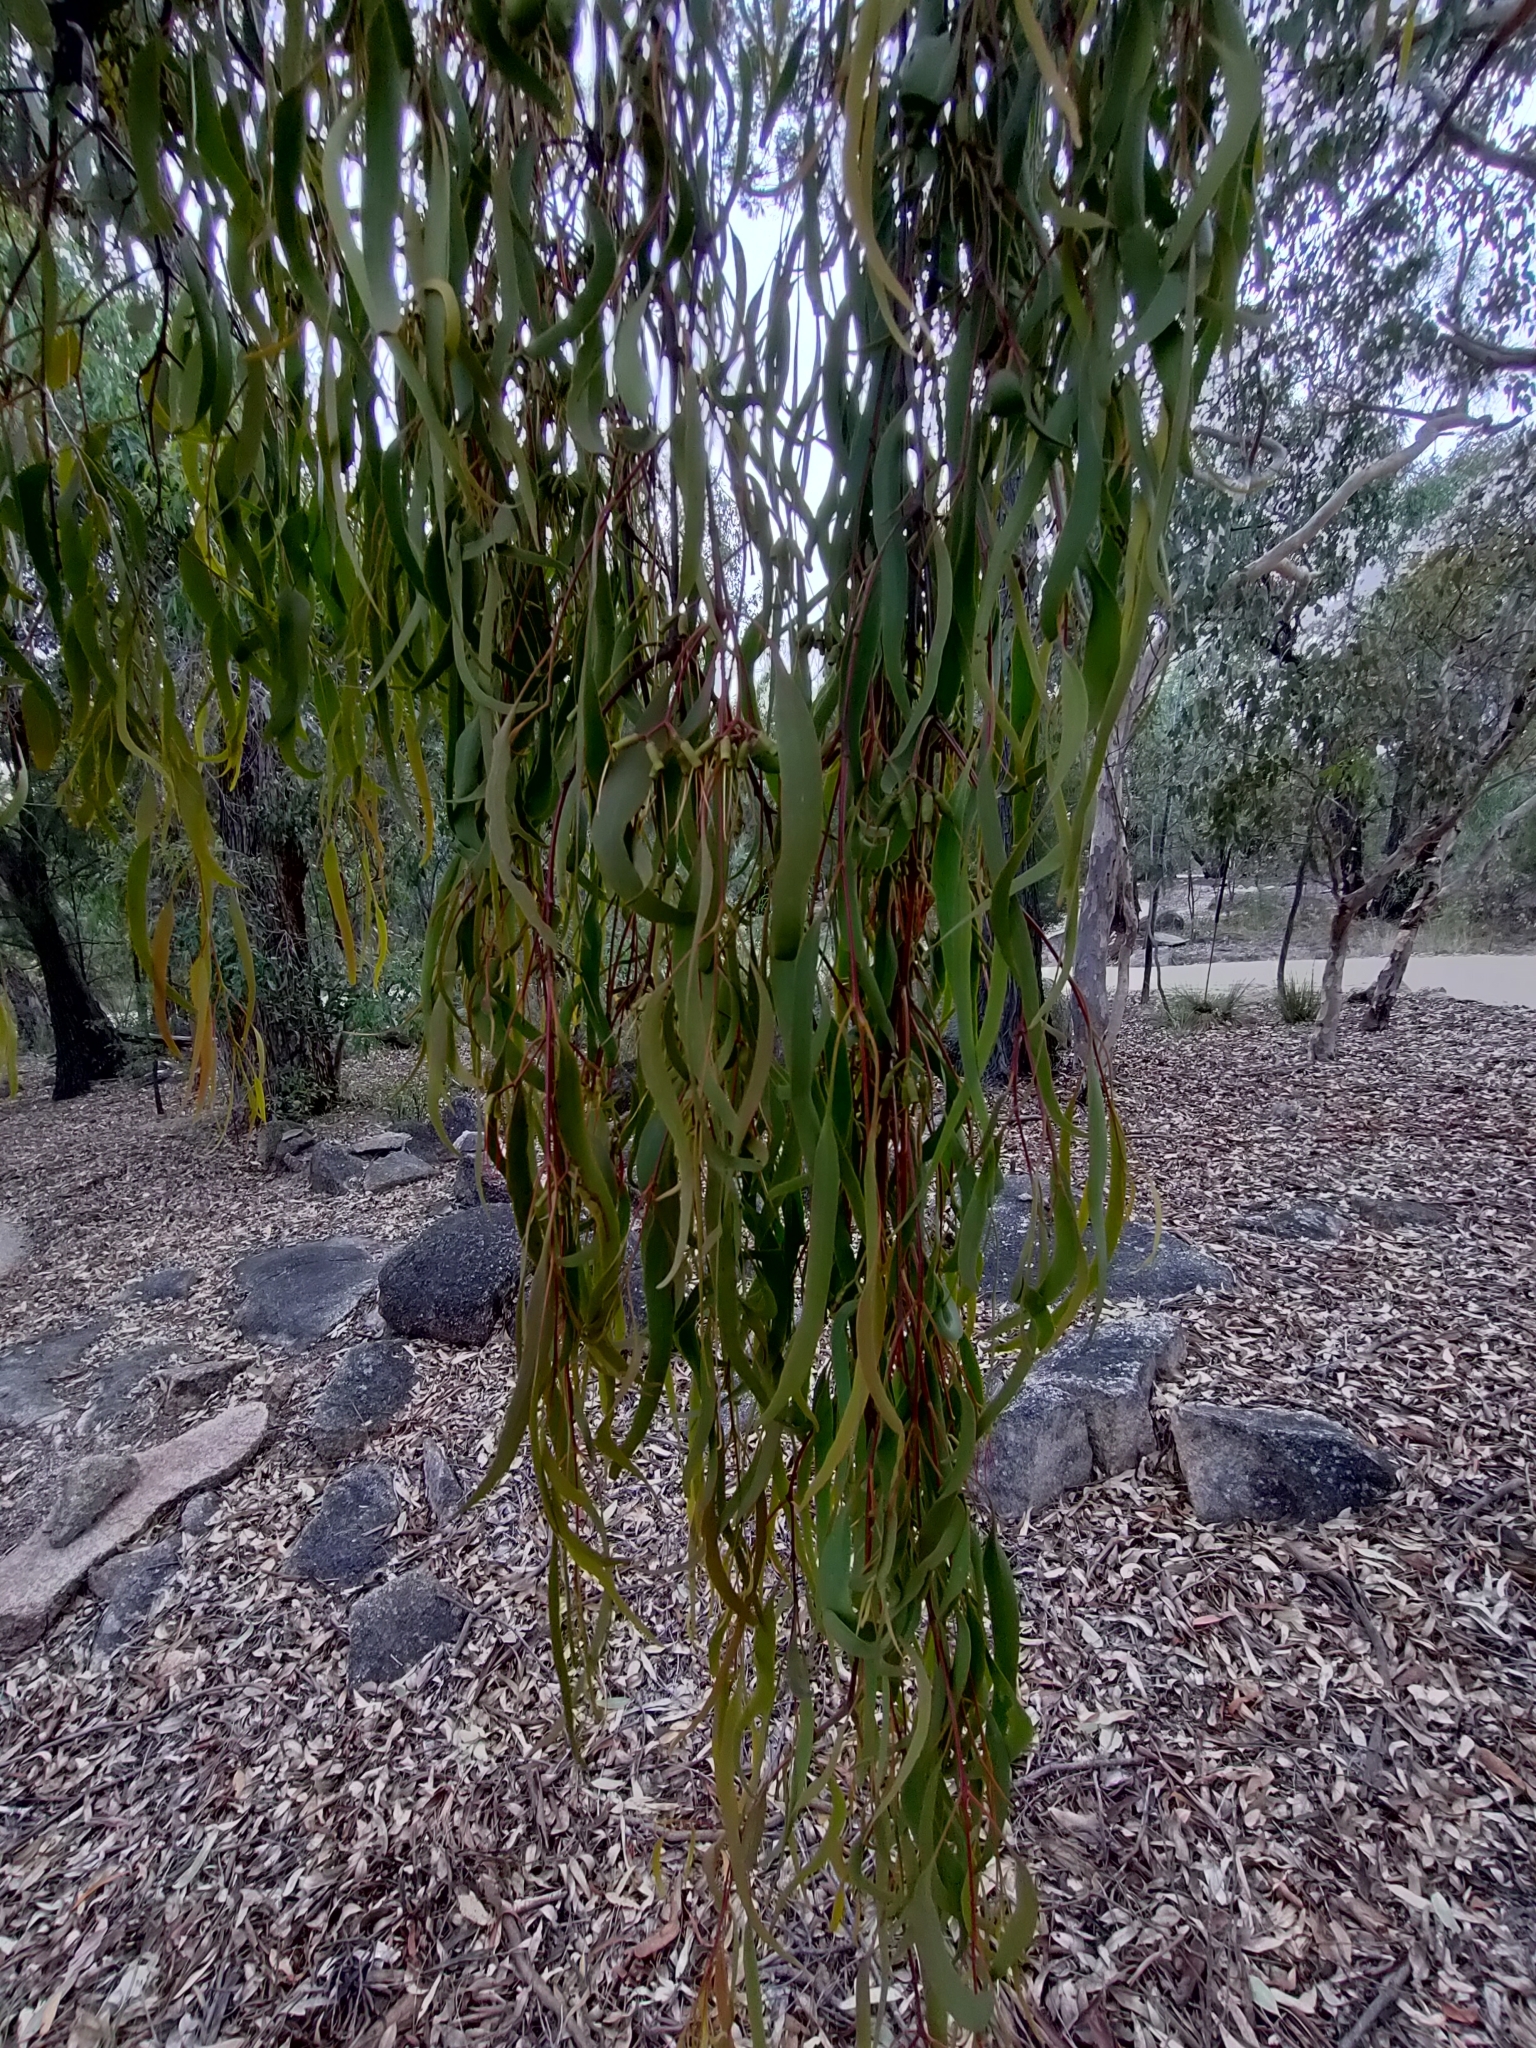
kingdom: Plantae
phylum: Tracheophyta
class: Magnoliopsida
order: Santalales
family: Loranthaceae
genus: Amyema
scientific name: Amyema miquelii
